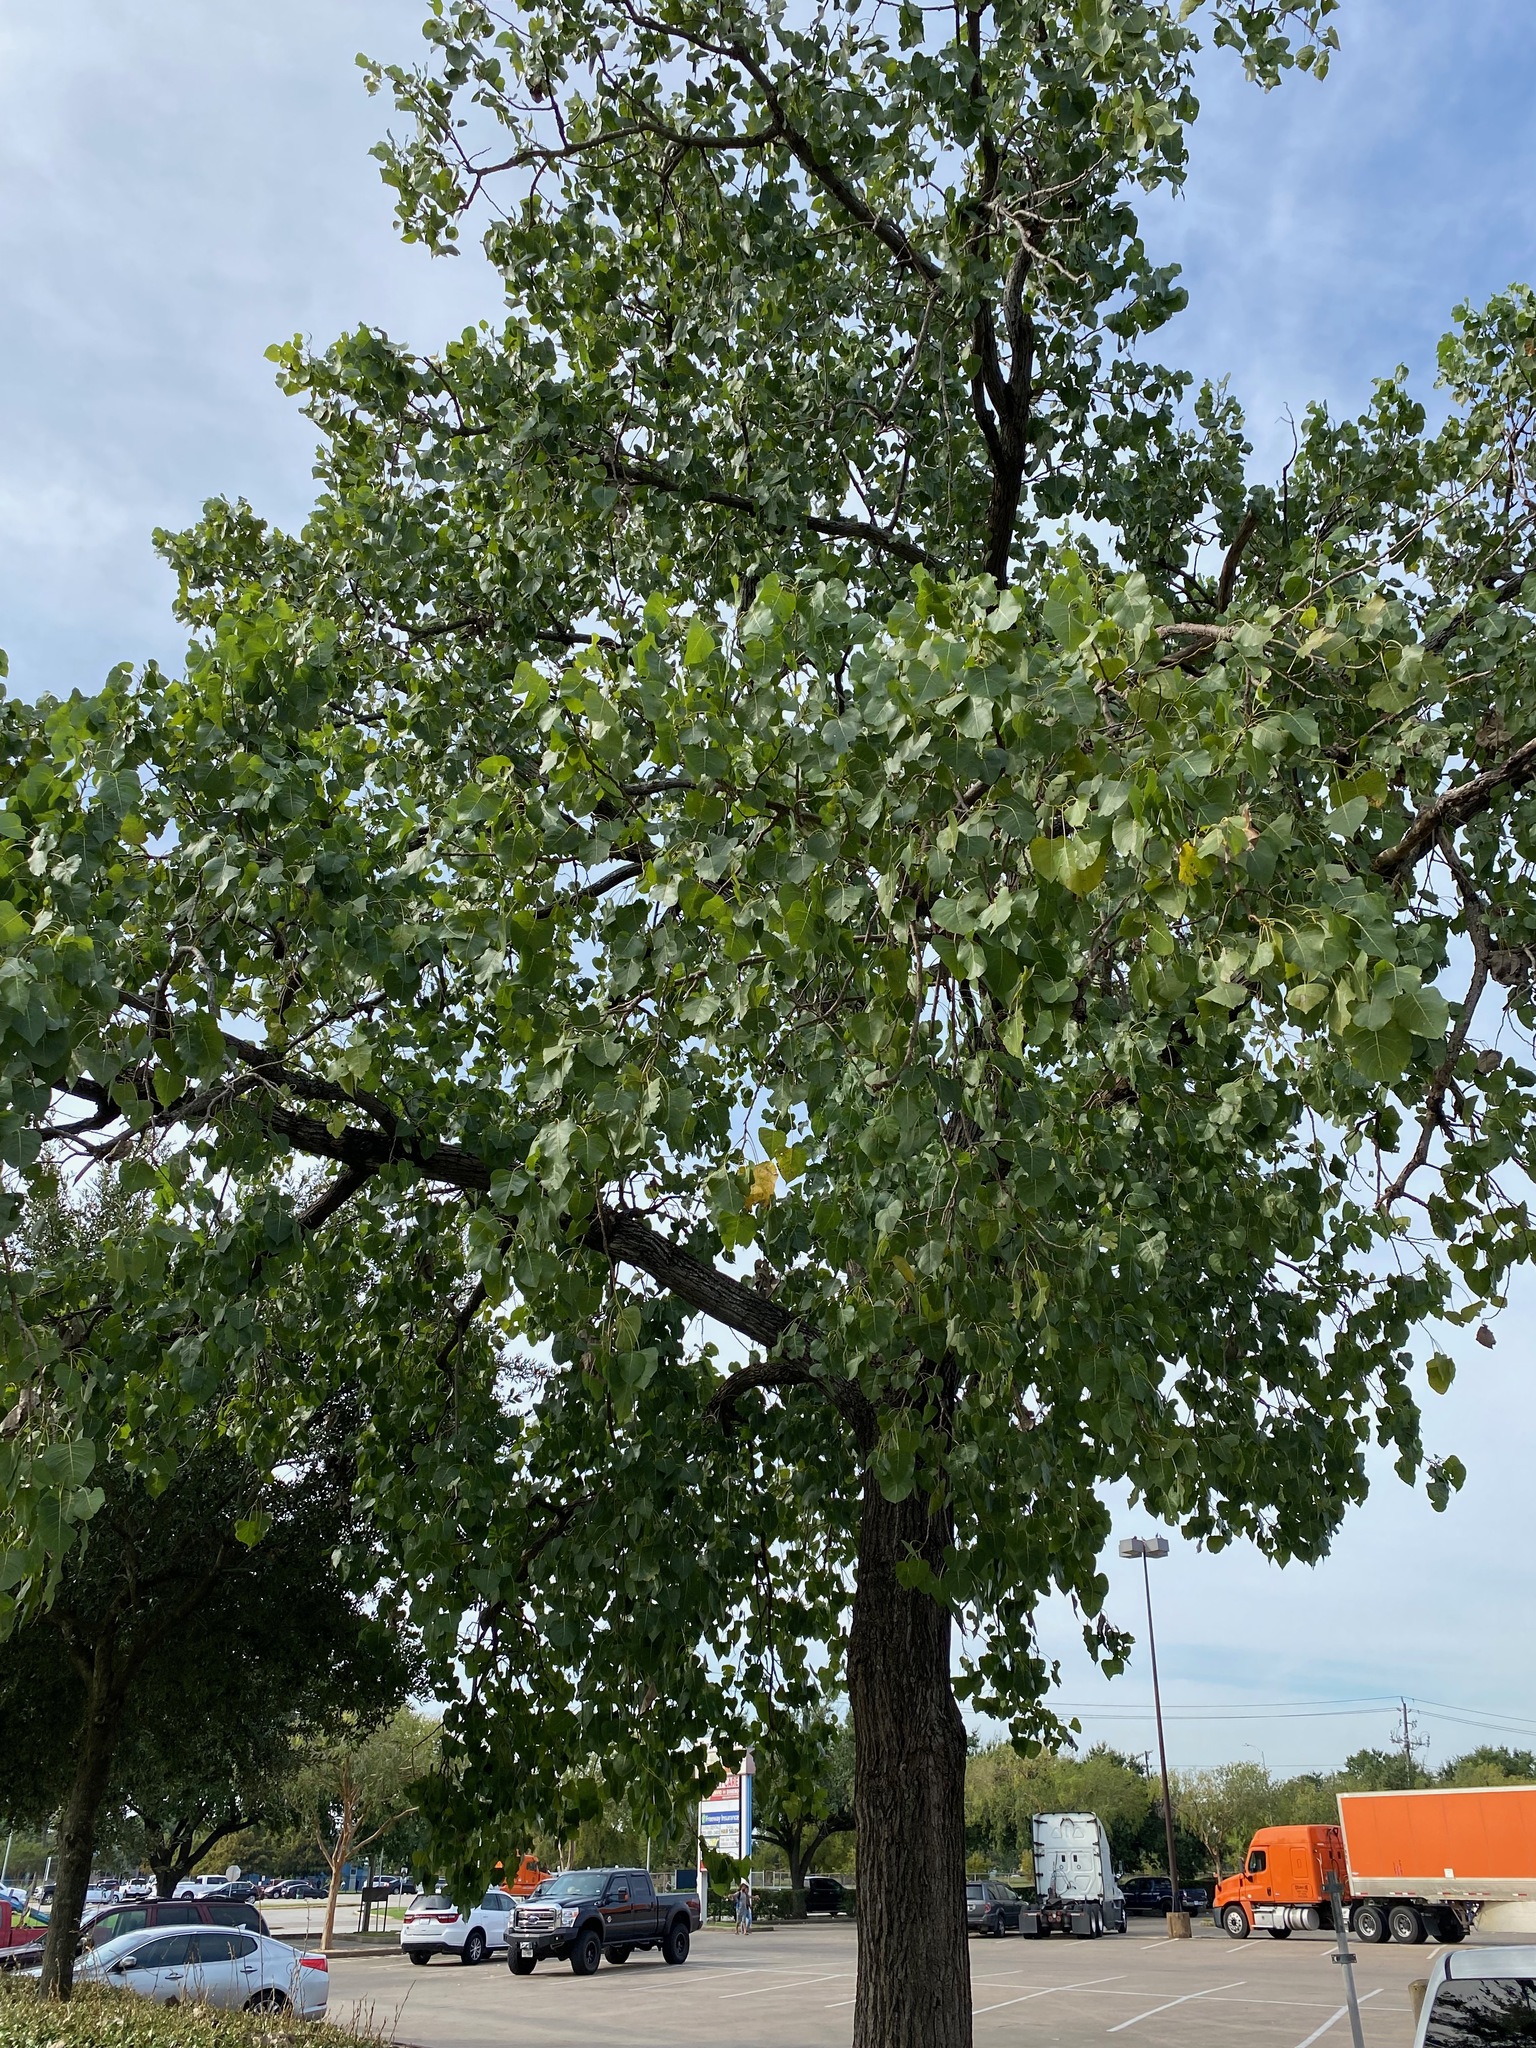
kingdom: Plantae
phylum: Tracheophyta
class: Magnoliopsida
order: Malpighiales
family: Salicaceae
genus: Populus
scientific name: Populus deltoides
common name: Eastern cottonwood
